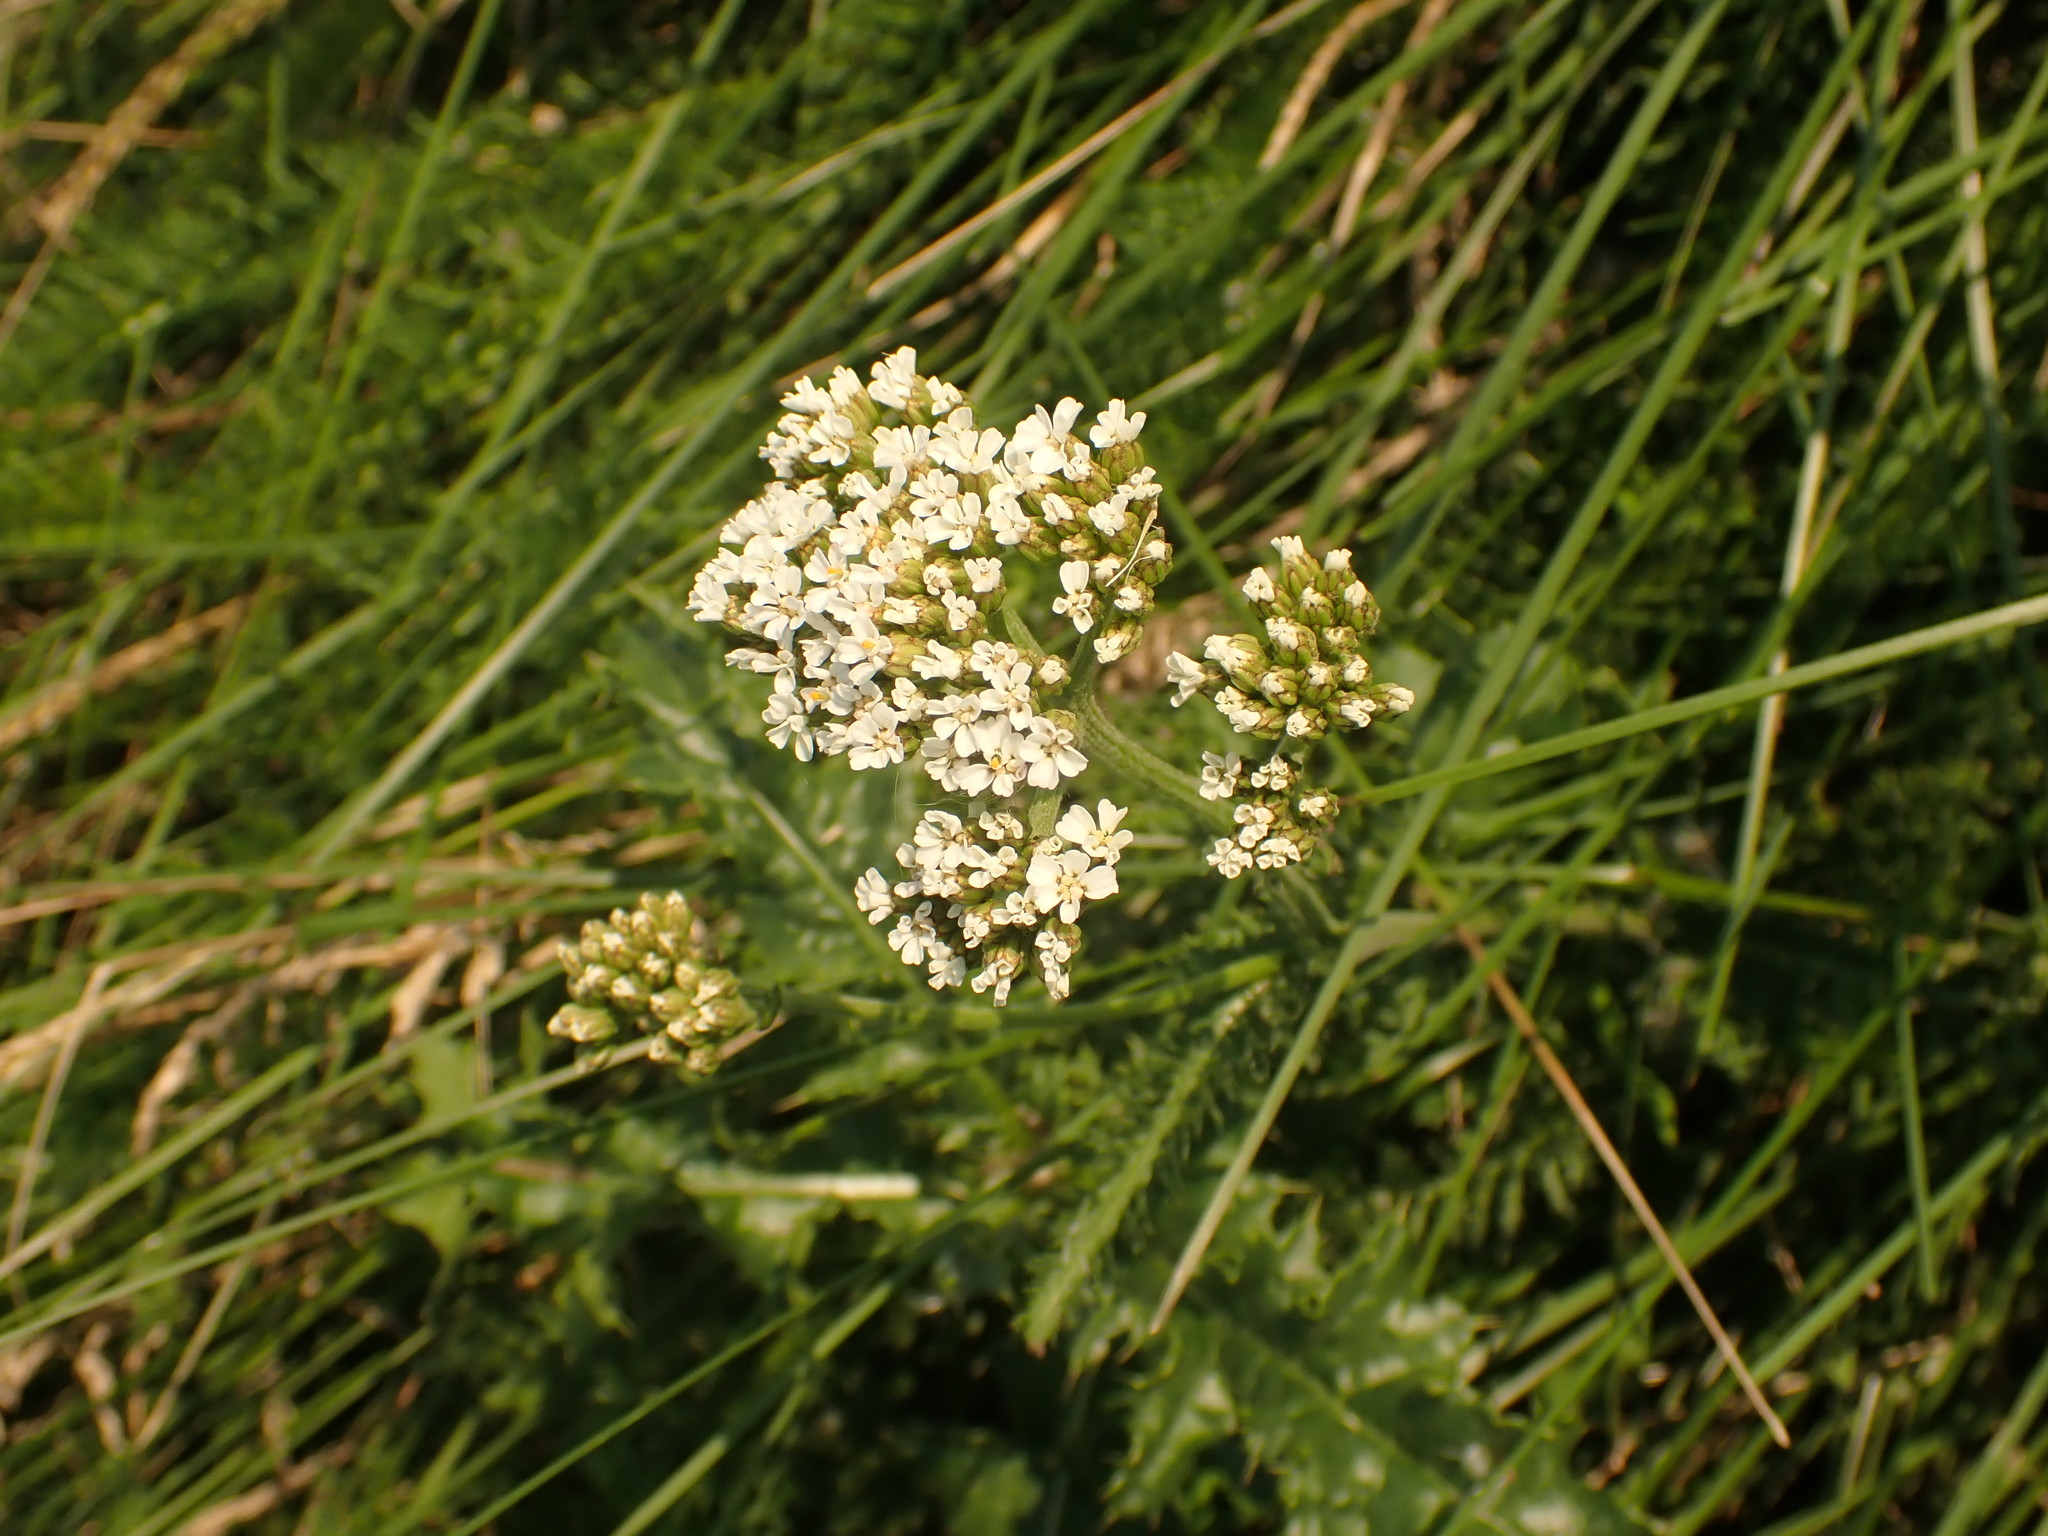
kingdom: Plantae
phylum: Tracheophyta
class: Magnoliopsida
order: Asterales
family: Asteraceae
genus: Achillea
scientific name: Achillea millefolium
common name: Yarrow
